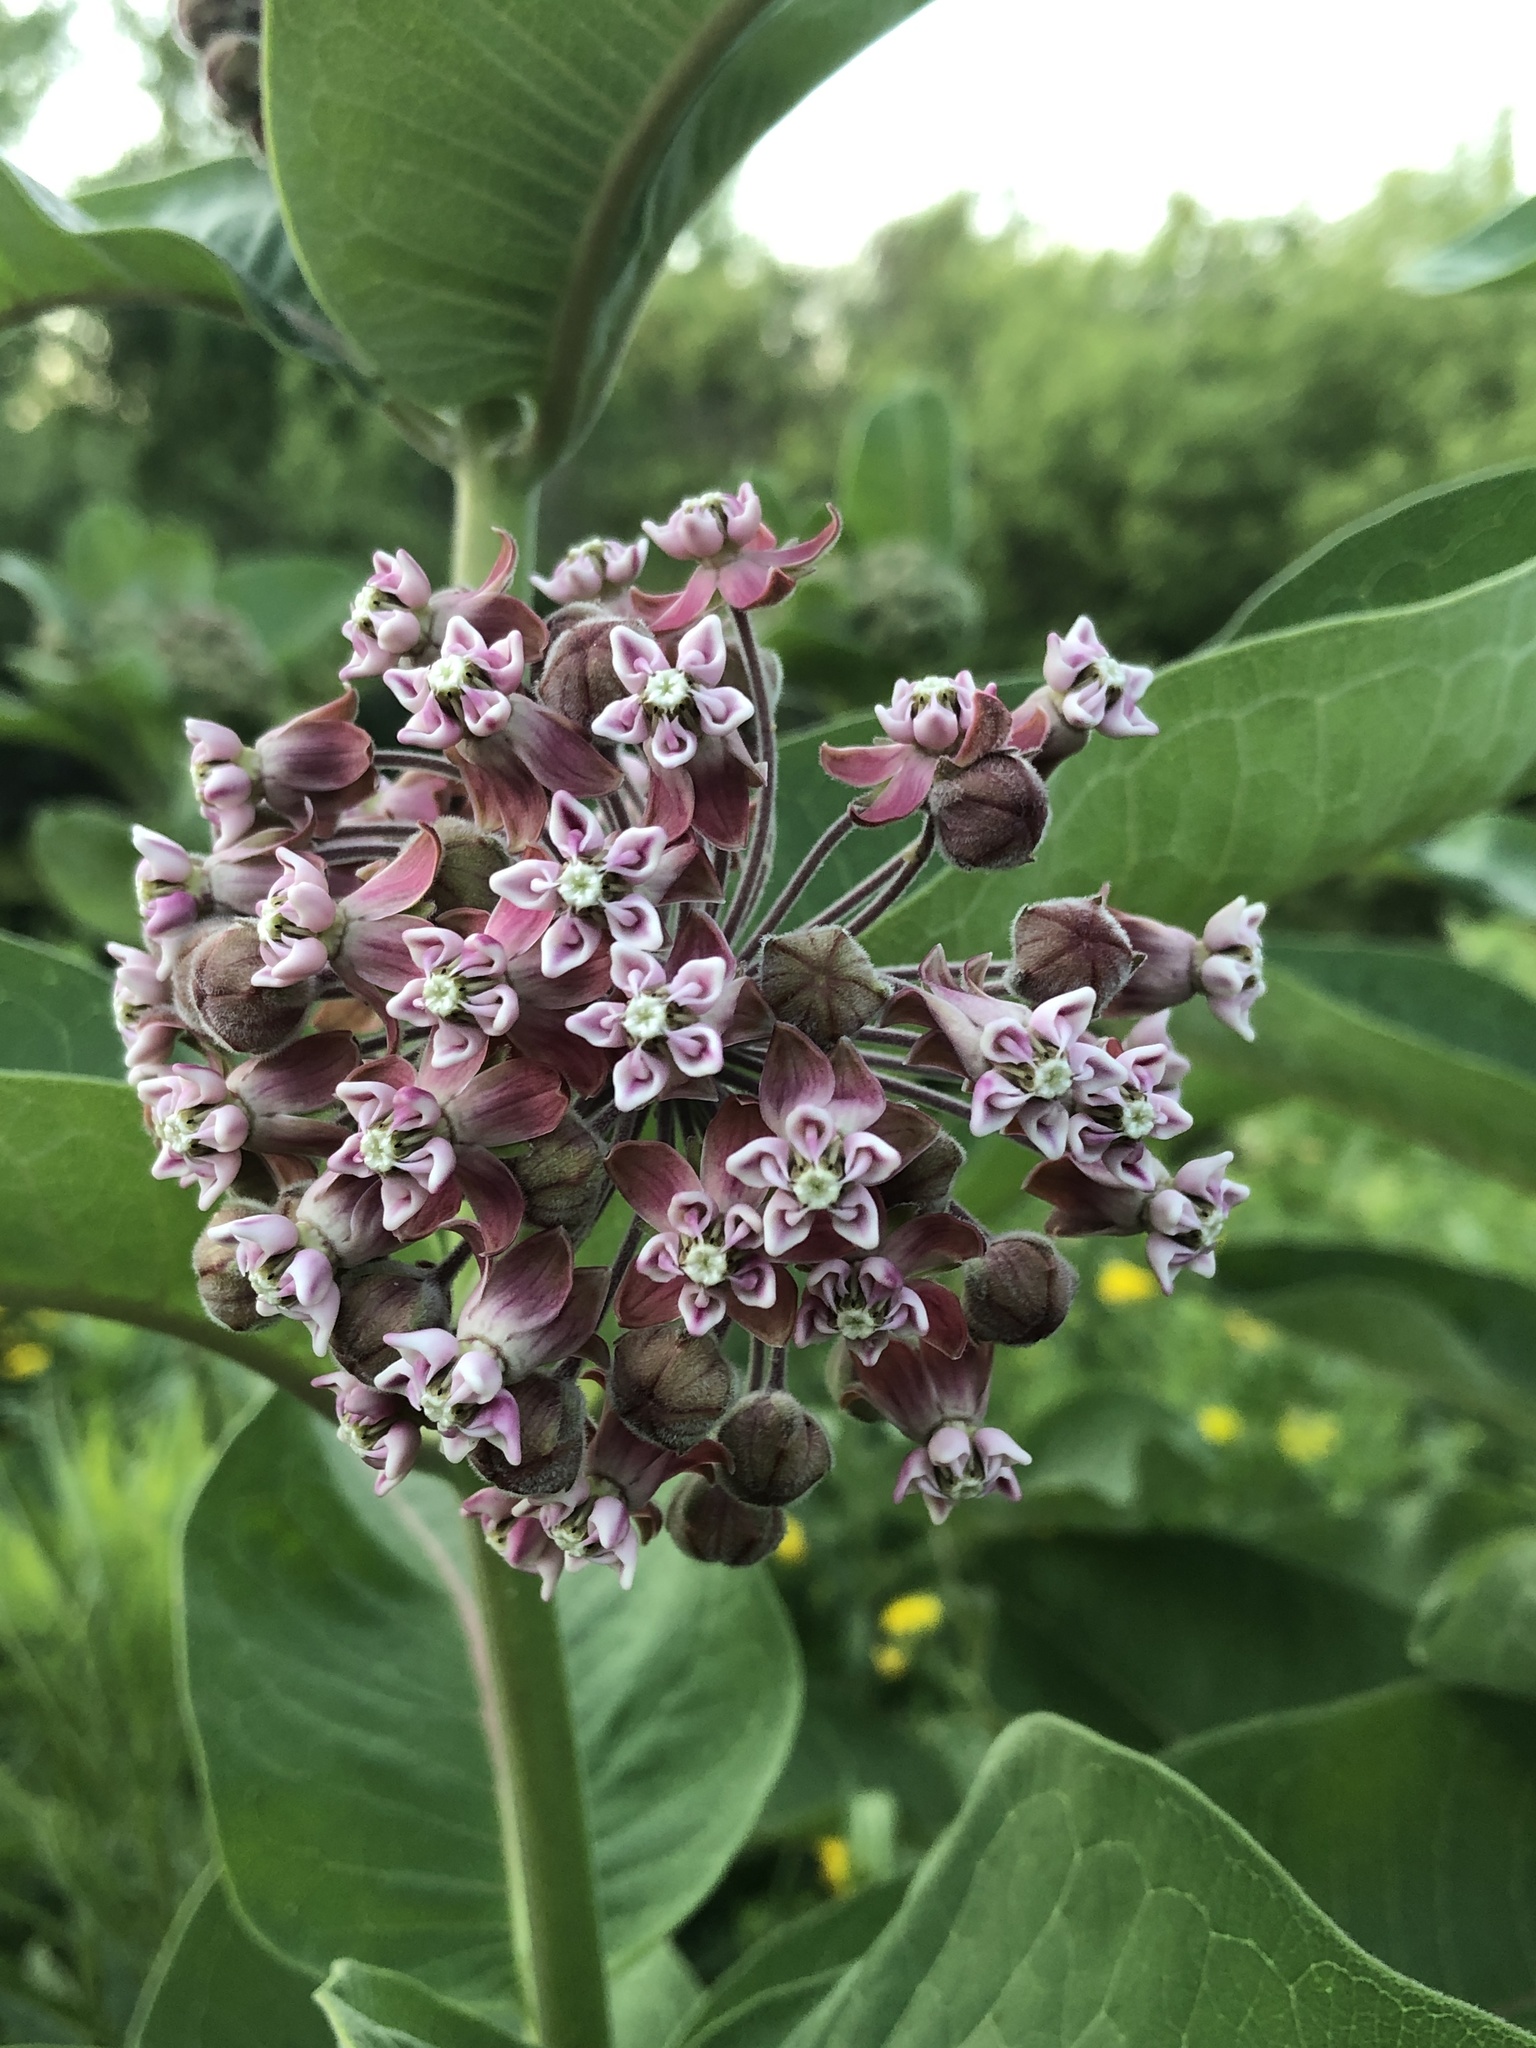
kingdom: Plantae
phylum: Tracheophyta
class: Magnoliopsida
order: Gentianales
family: Apocynaceae
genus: Asclepias
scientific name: Asclepias syriaca
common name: Common milkweed
